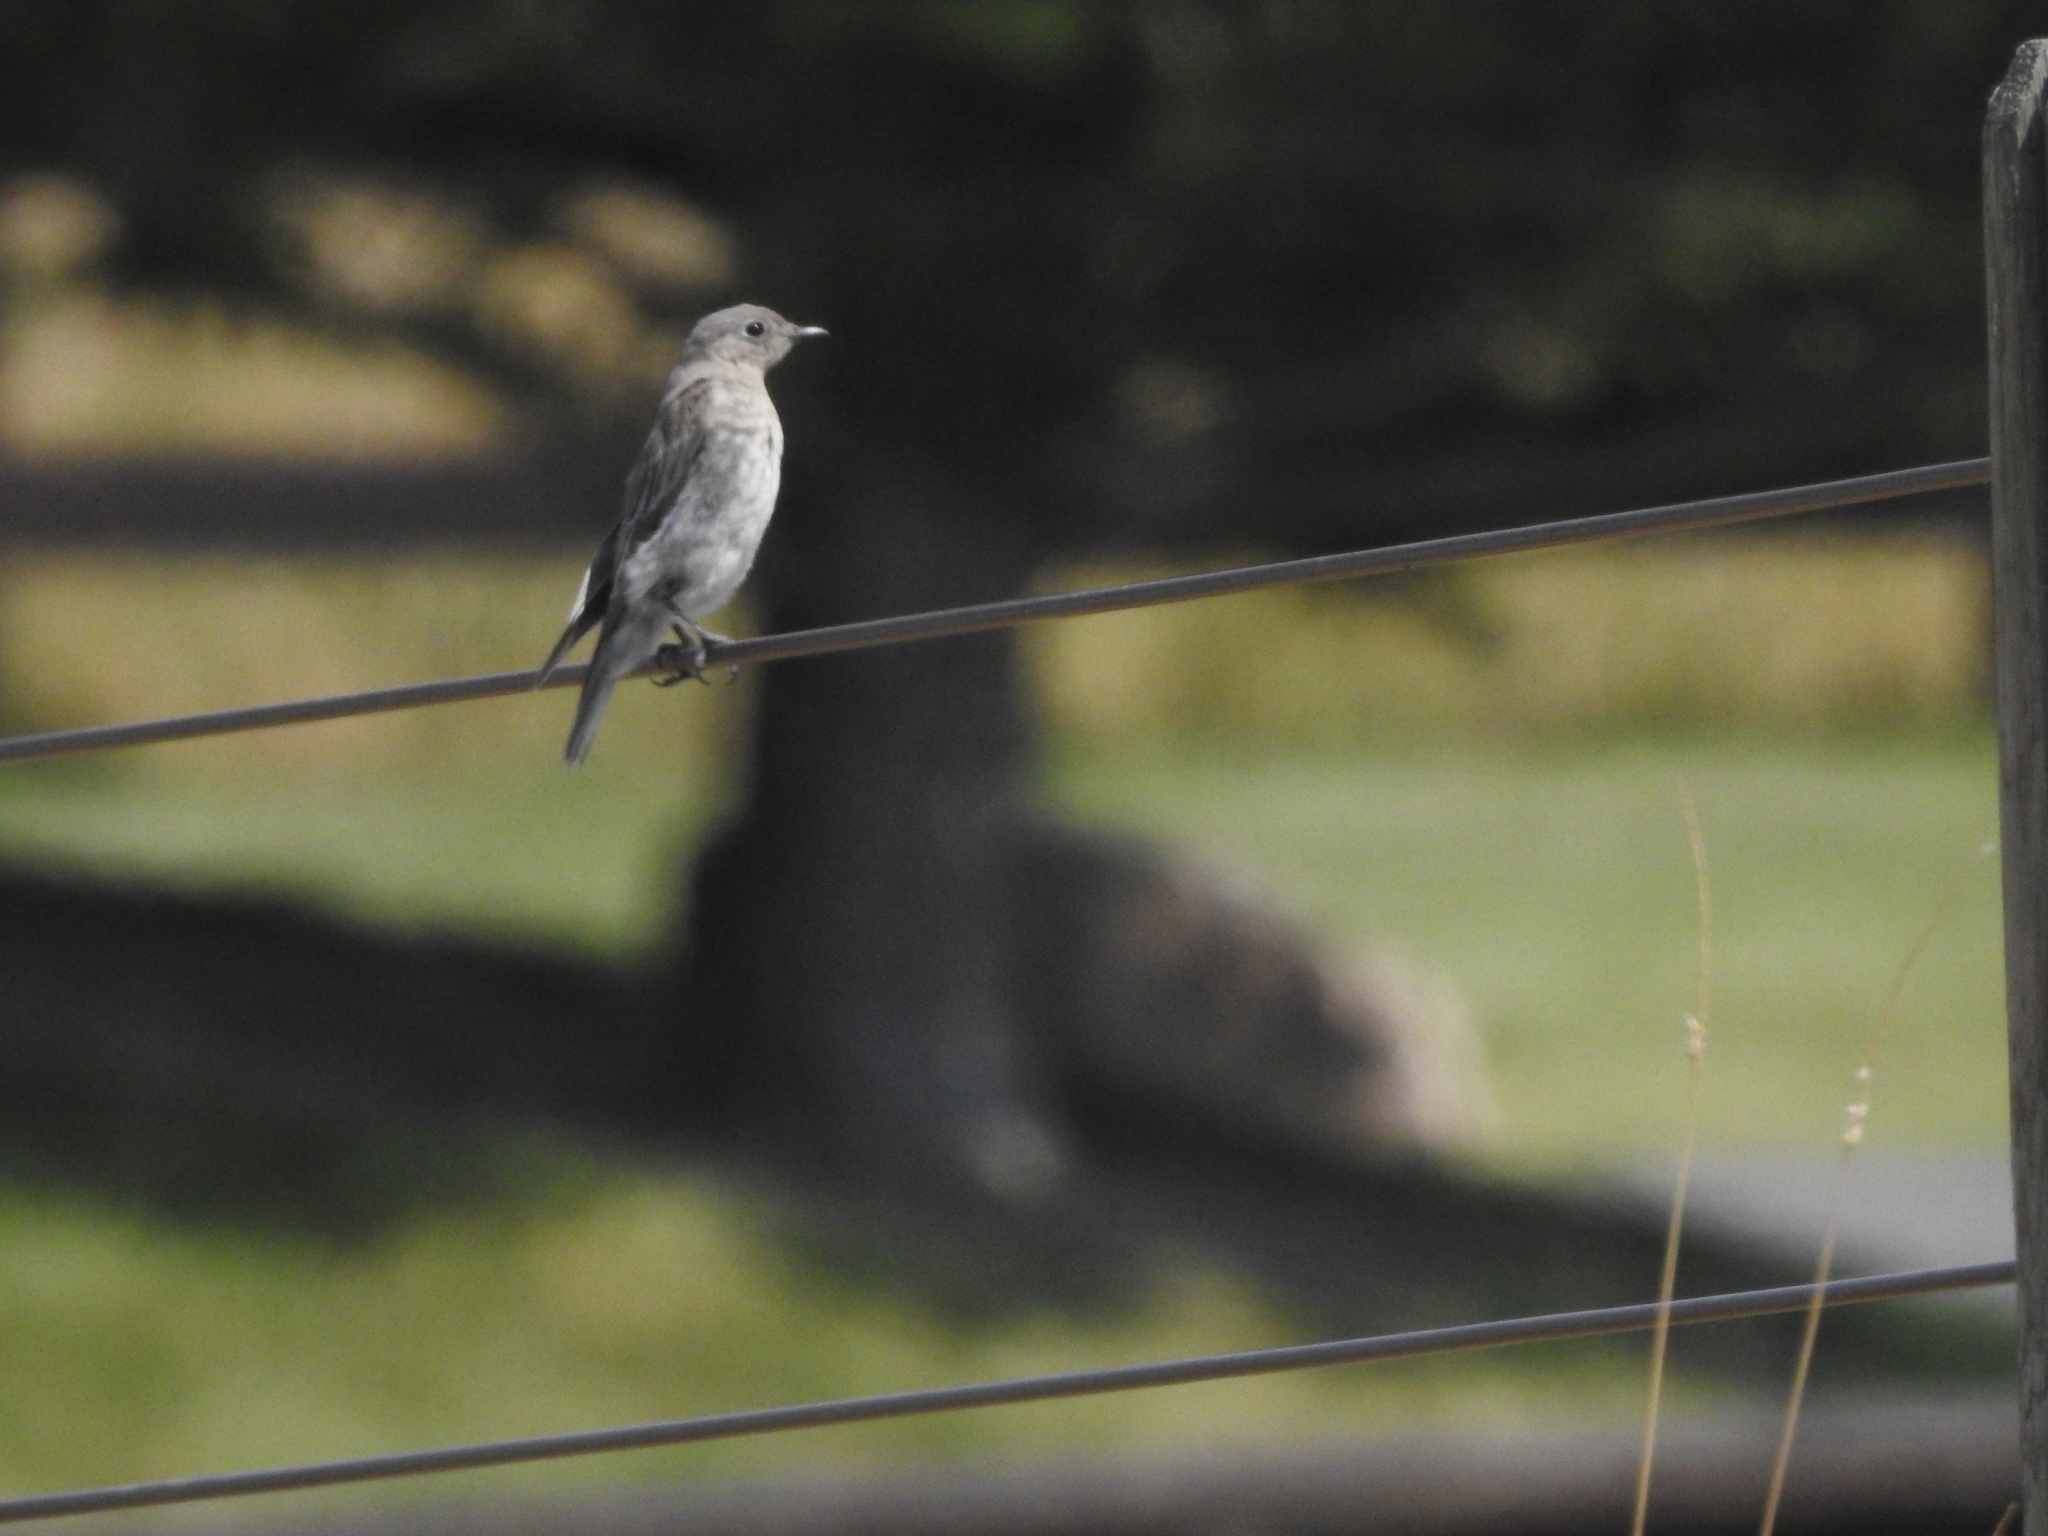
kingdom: Animalia
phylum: Chordata
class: Aves
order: Passeriformes
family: Turdidae
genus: Sialia
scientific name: Sialia currucoides
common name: Mountain bluebird
